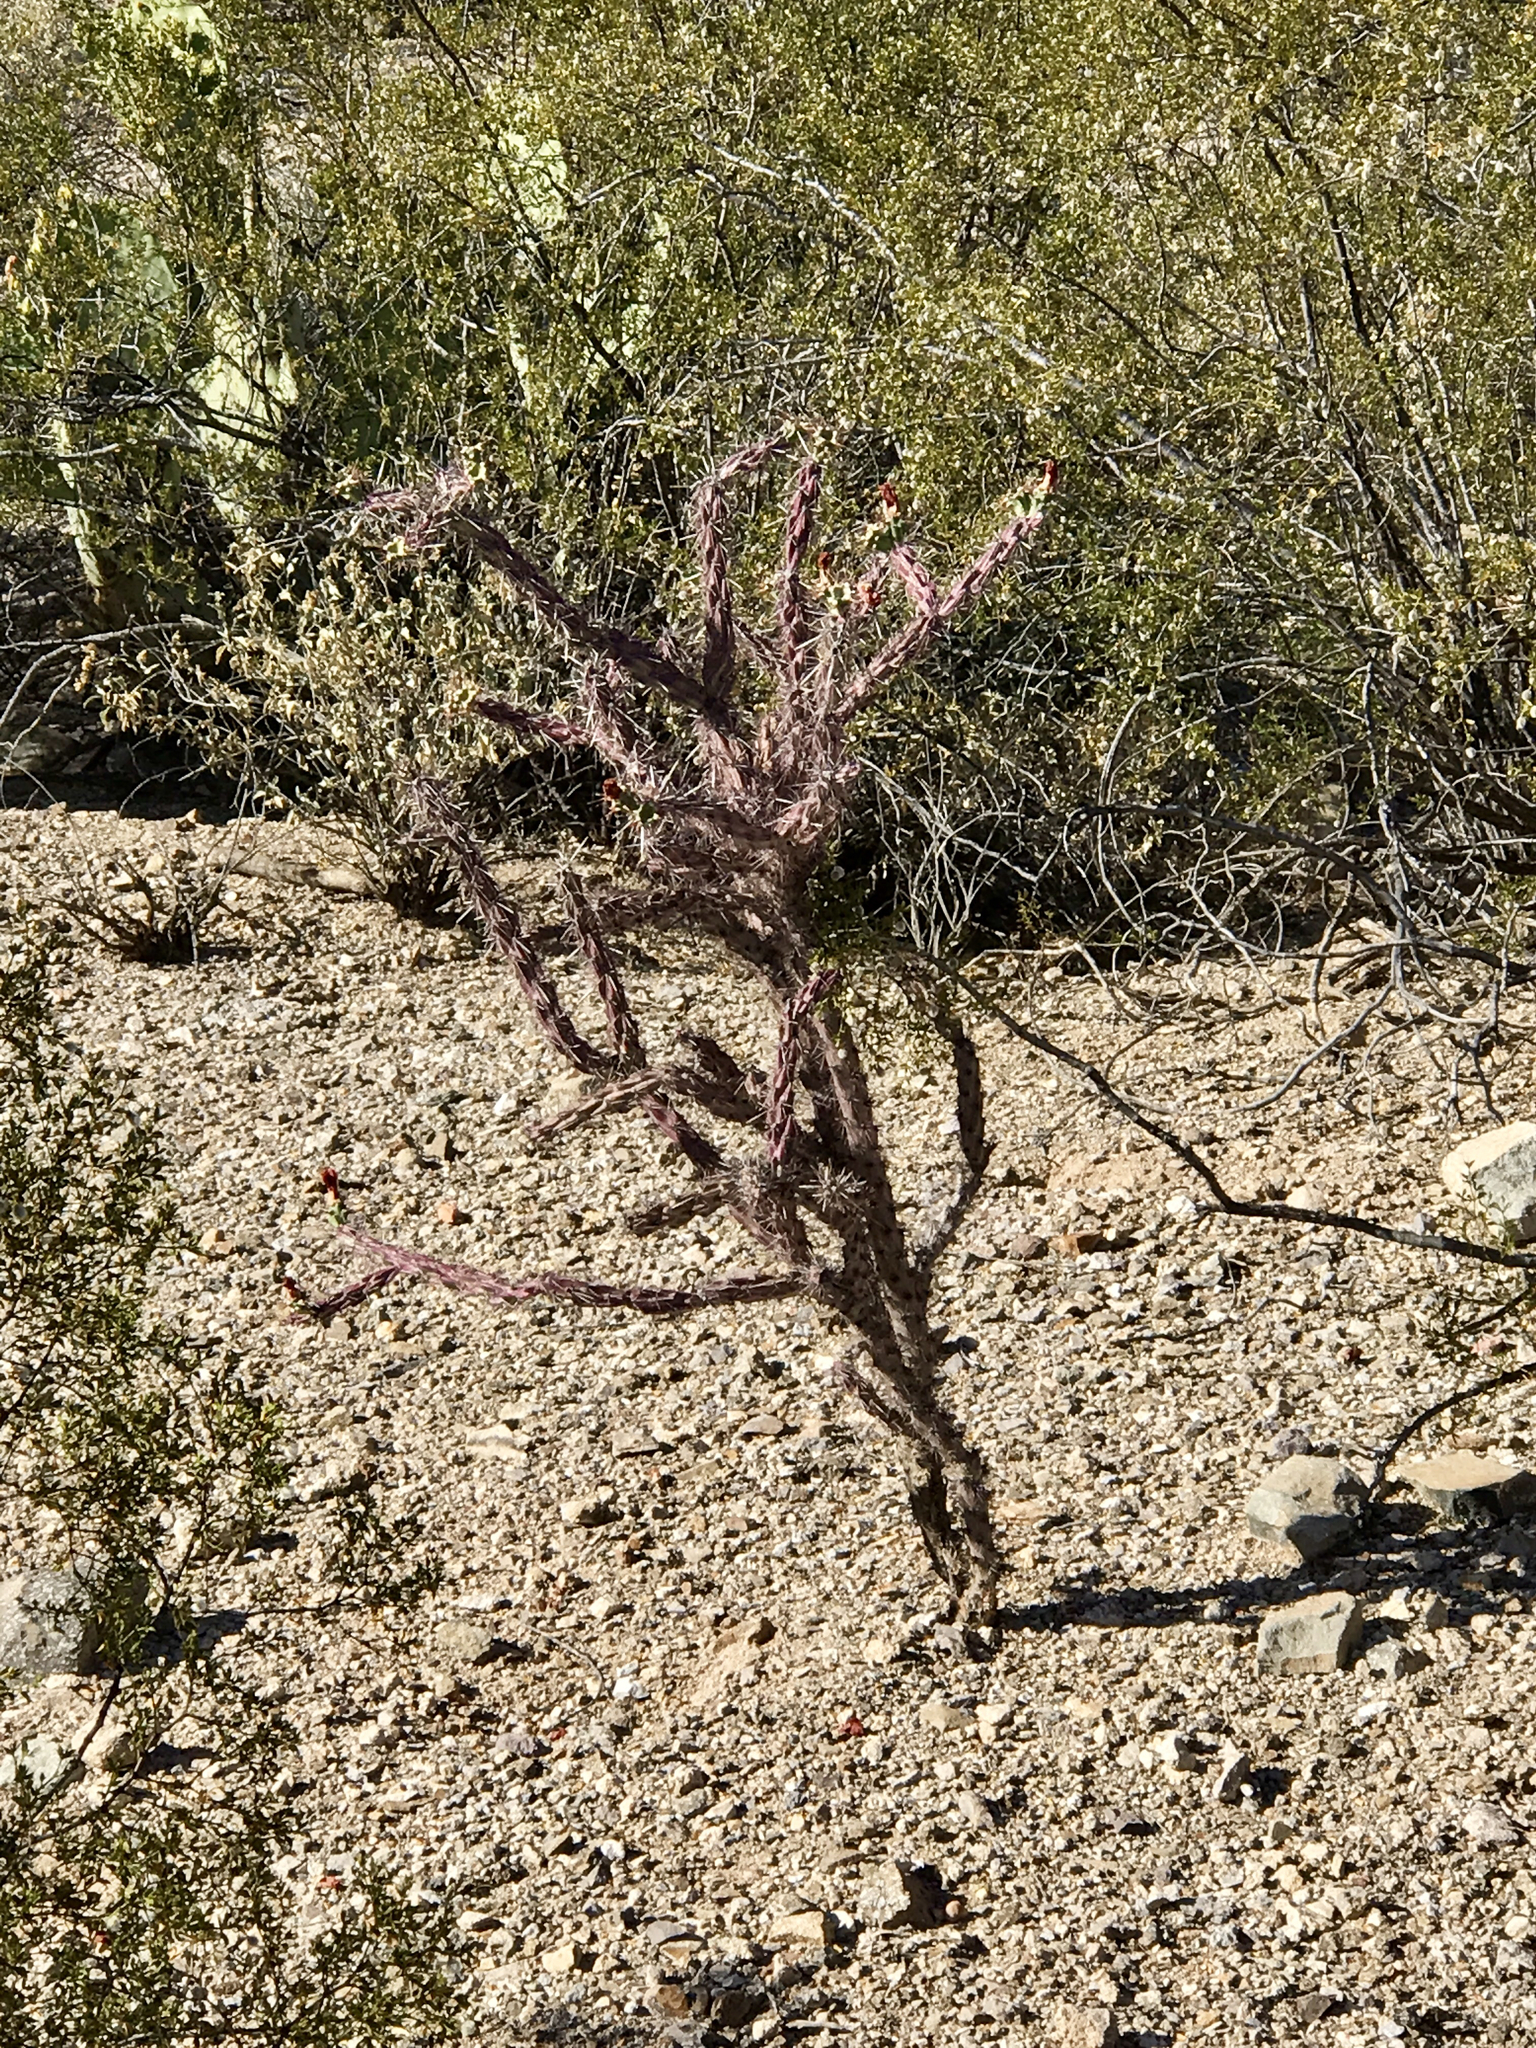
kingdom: Plantae
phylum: Tracheophyta
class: Magnoliopsida
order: Caryophyllales
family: Cactaceae
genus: Cylindropuntia
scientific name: Cylindropuntia thurberi
